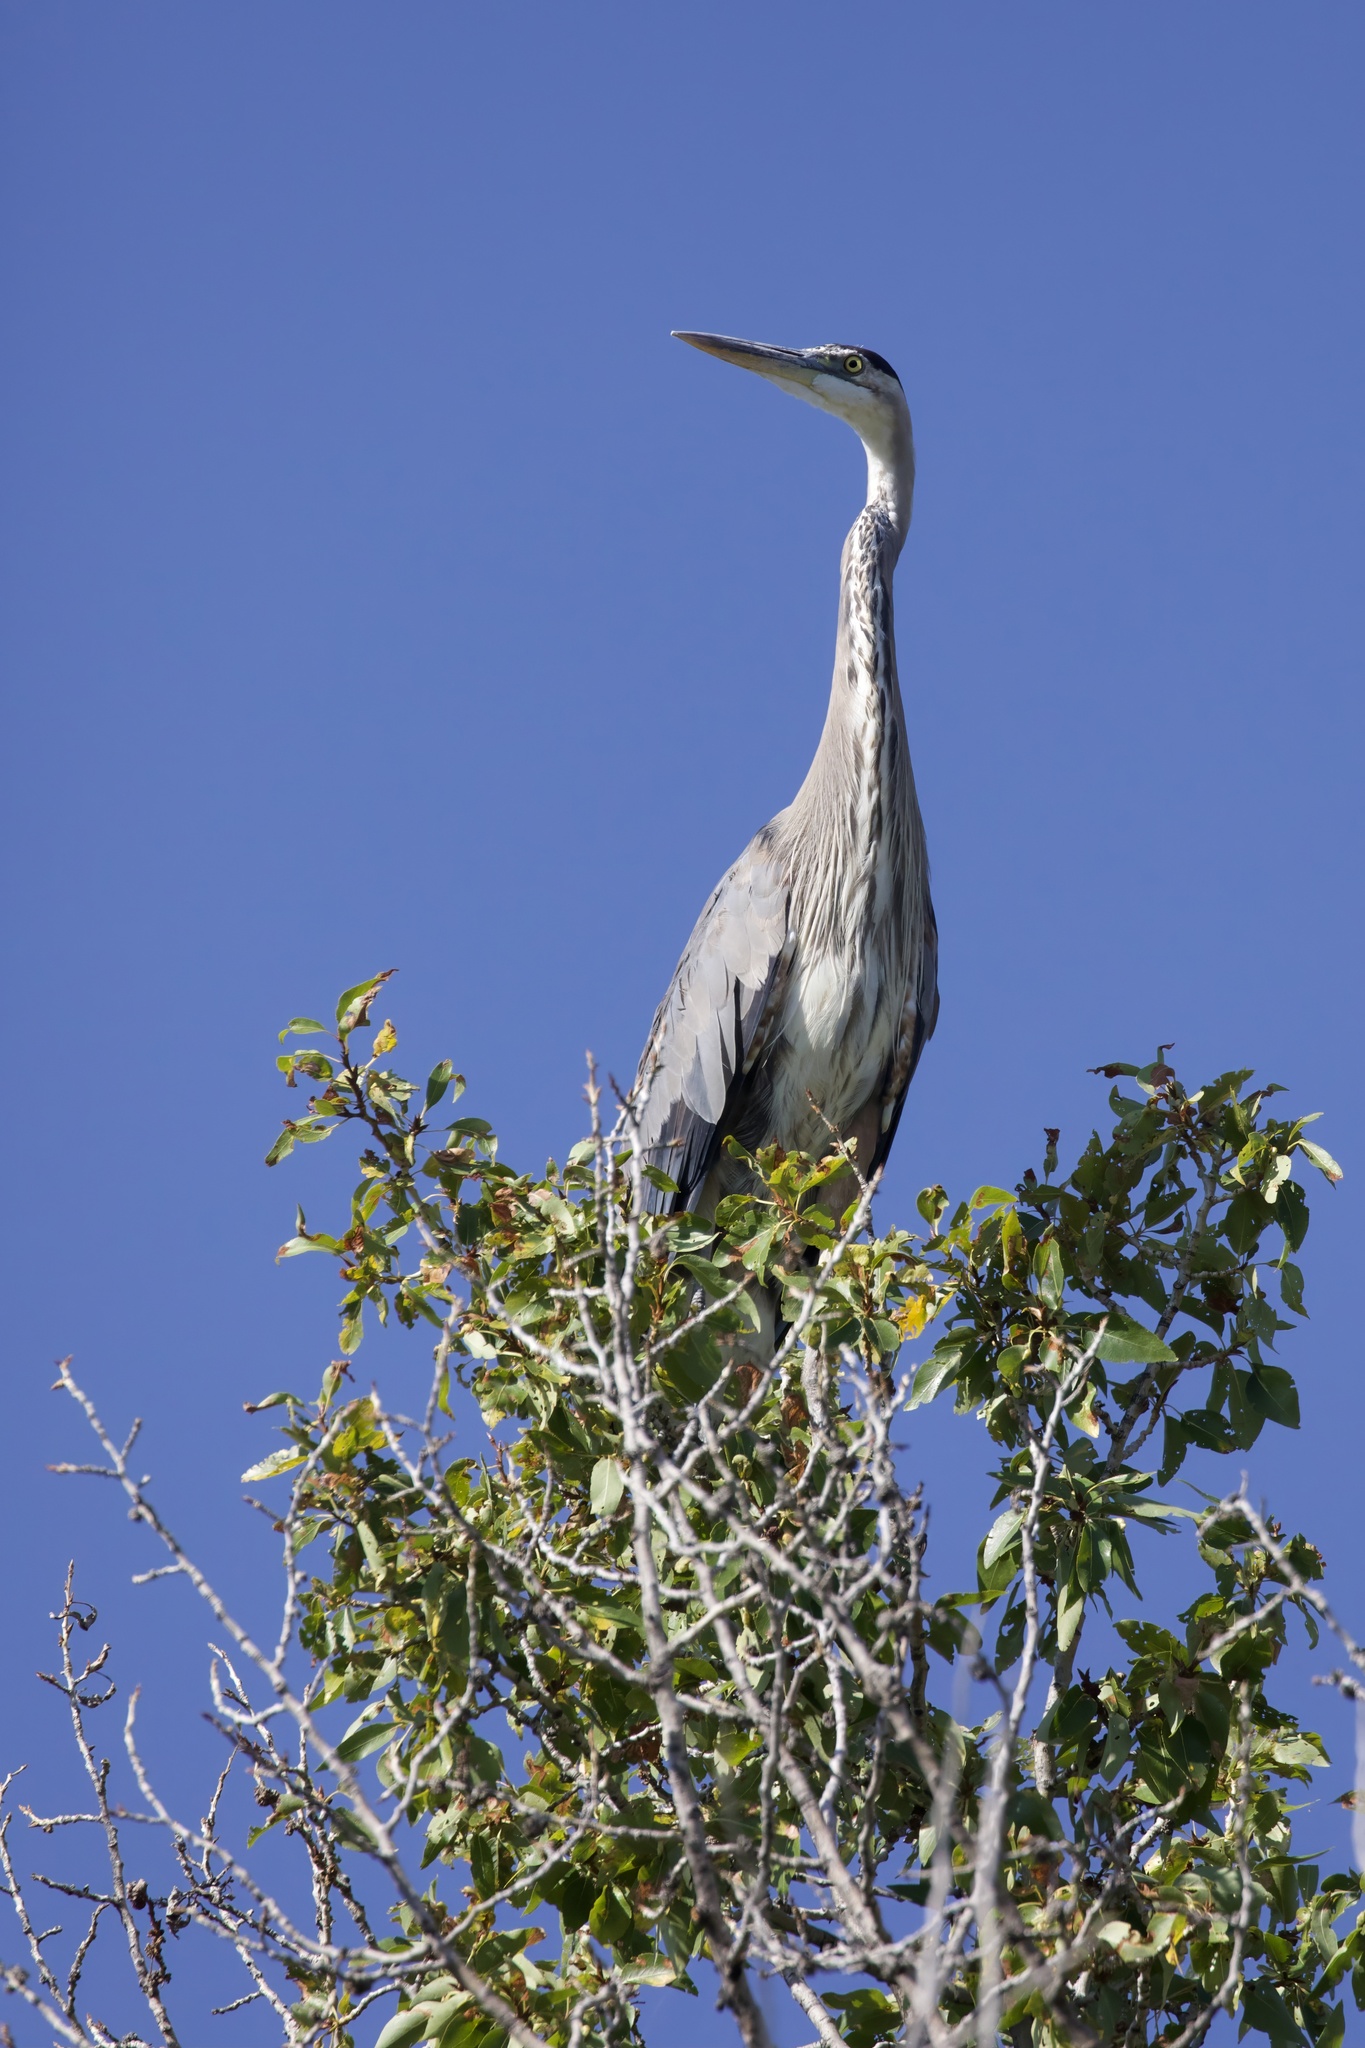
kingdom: Animalia
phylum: Chordata
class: Aves
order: Pelecaniformes
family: Ardeidae
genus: Ardea
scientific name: Ardea herodias
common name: Great blue heron
